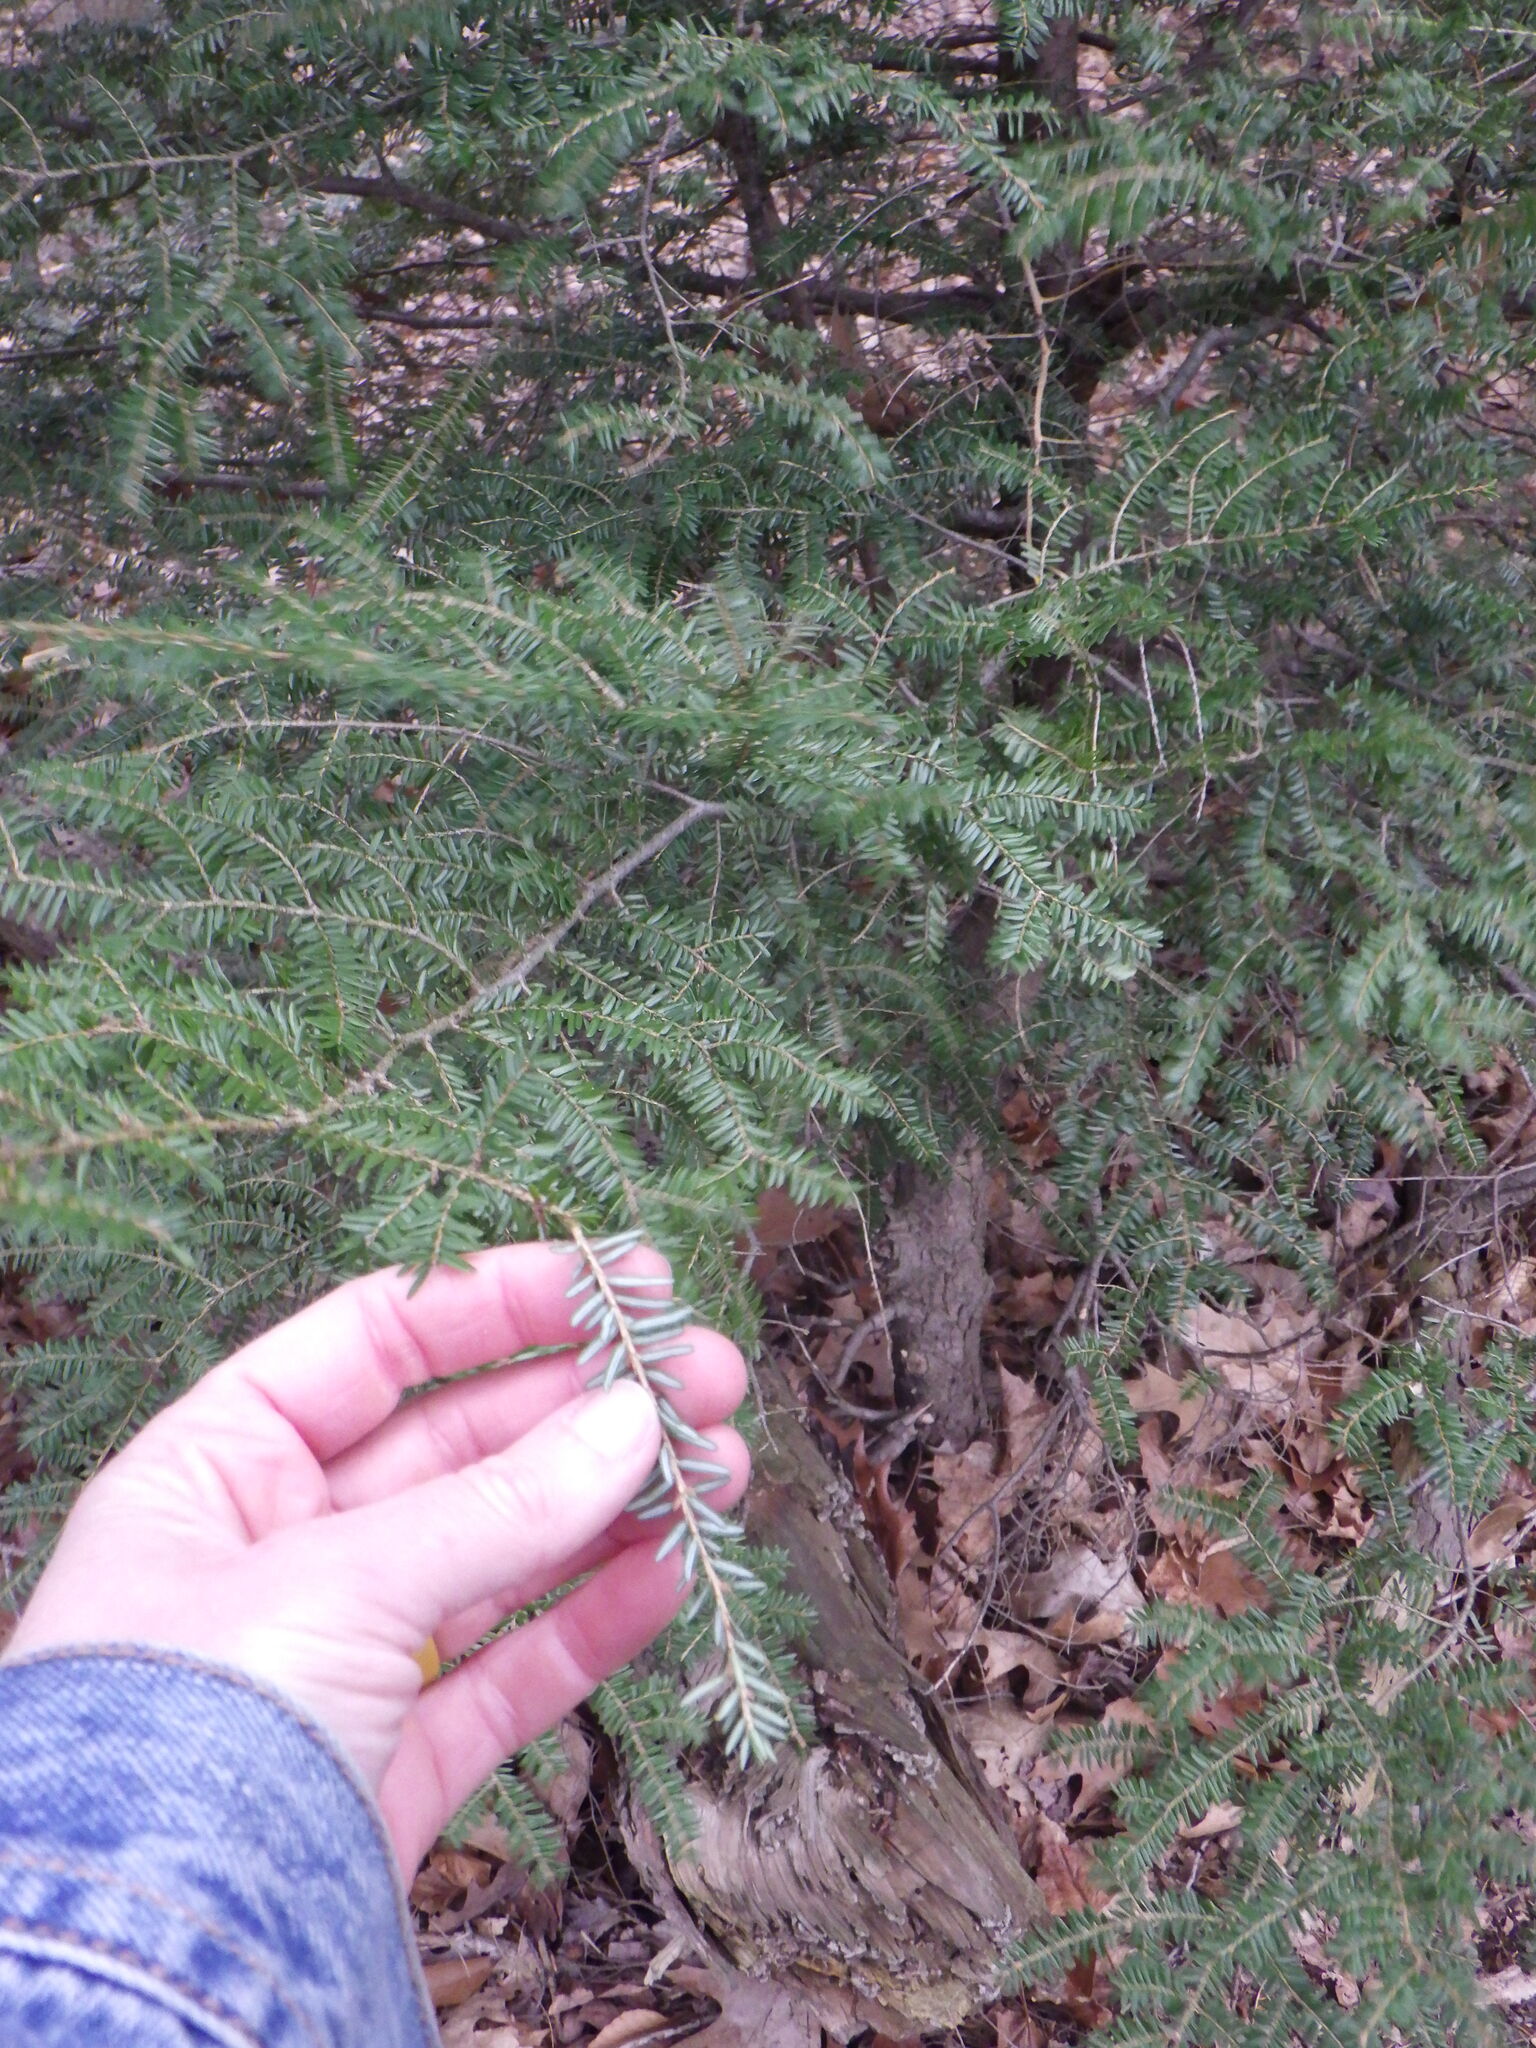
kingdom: Plantae
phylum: Tracheophyta
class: Pinopsida
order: Pinales
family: Pinaceae
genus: Tsuga
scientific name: Tsuga canadensis
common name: Eastern hemlock
